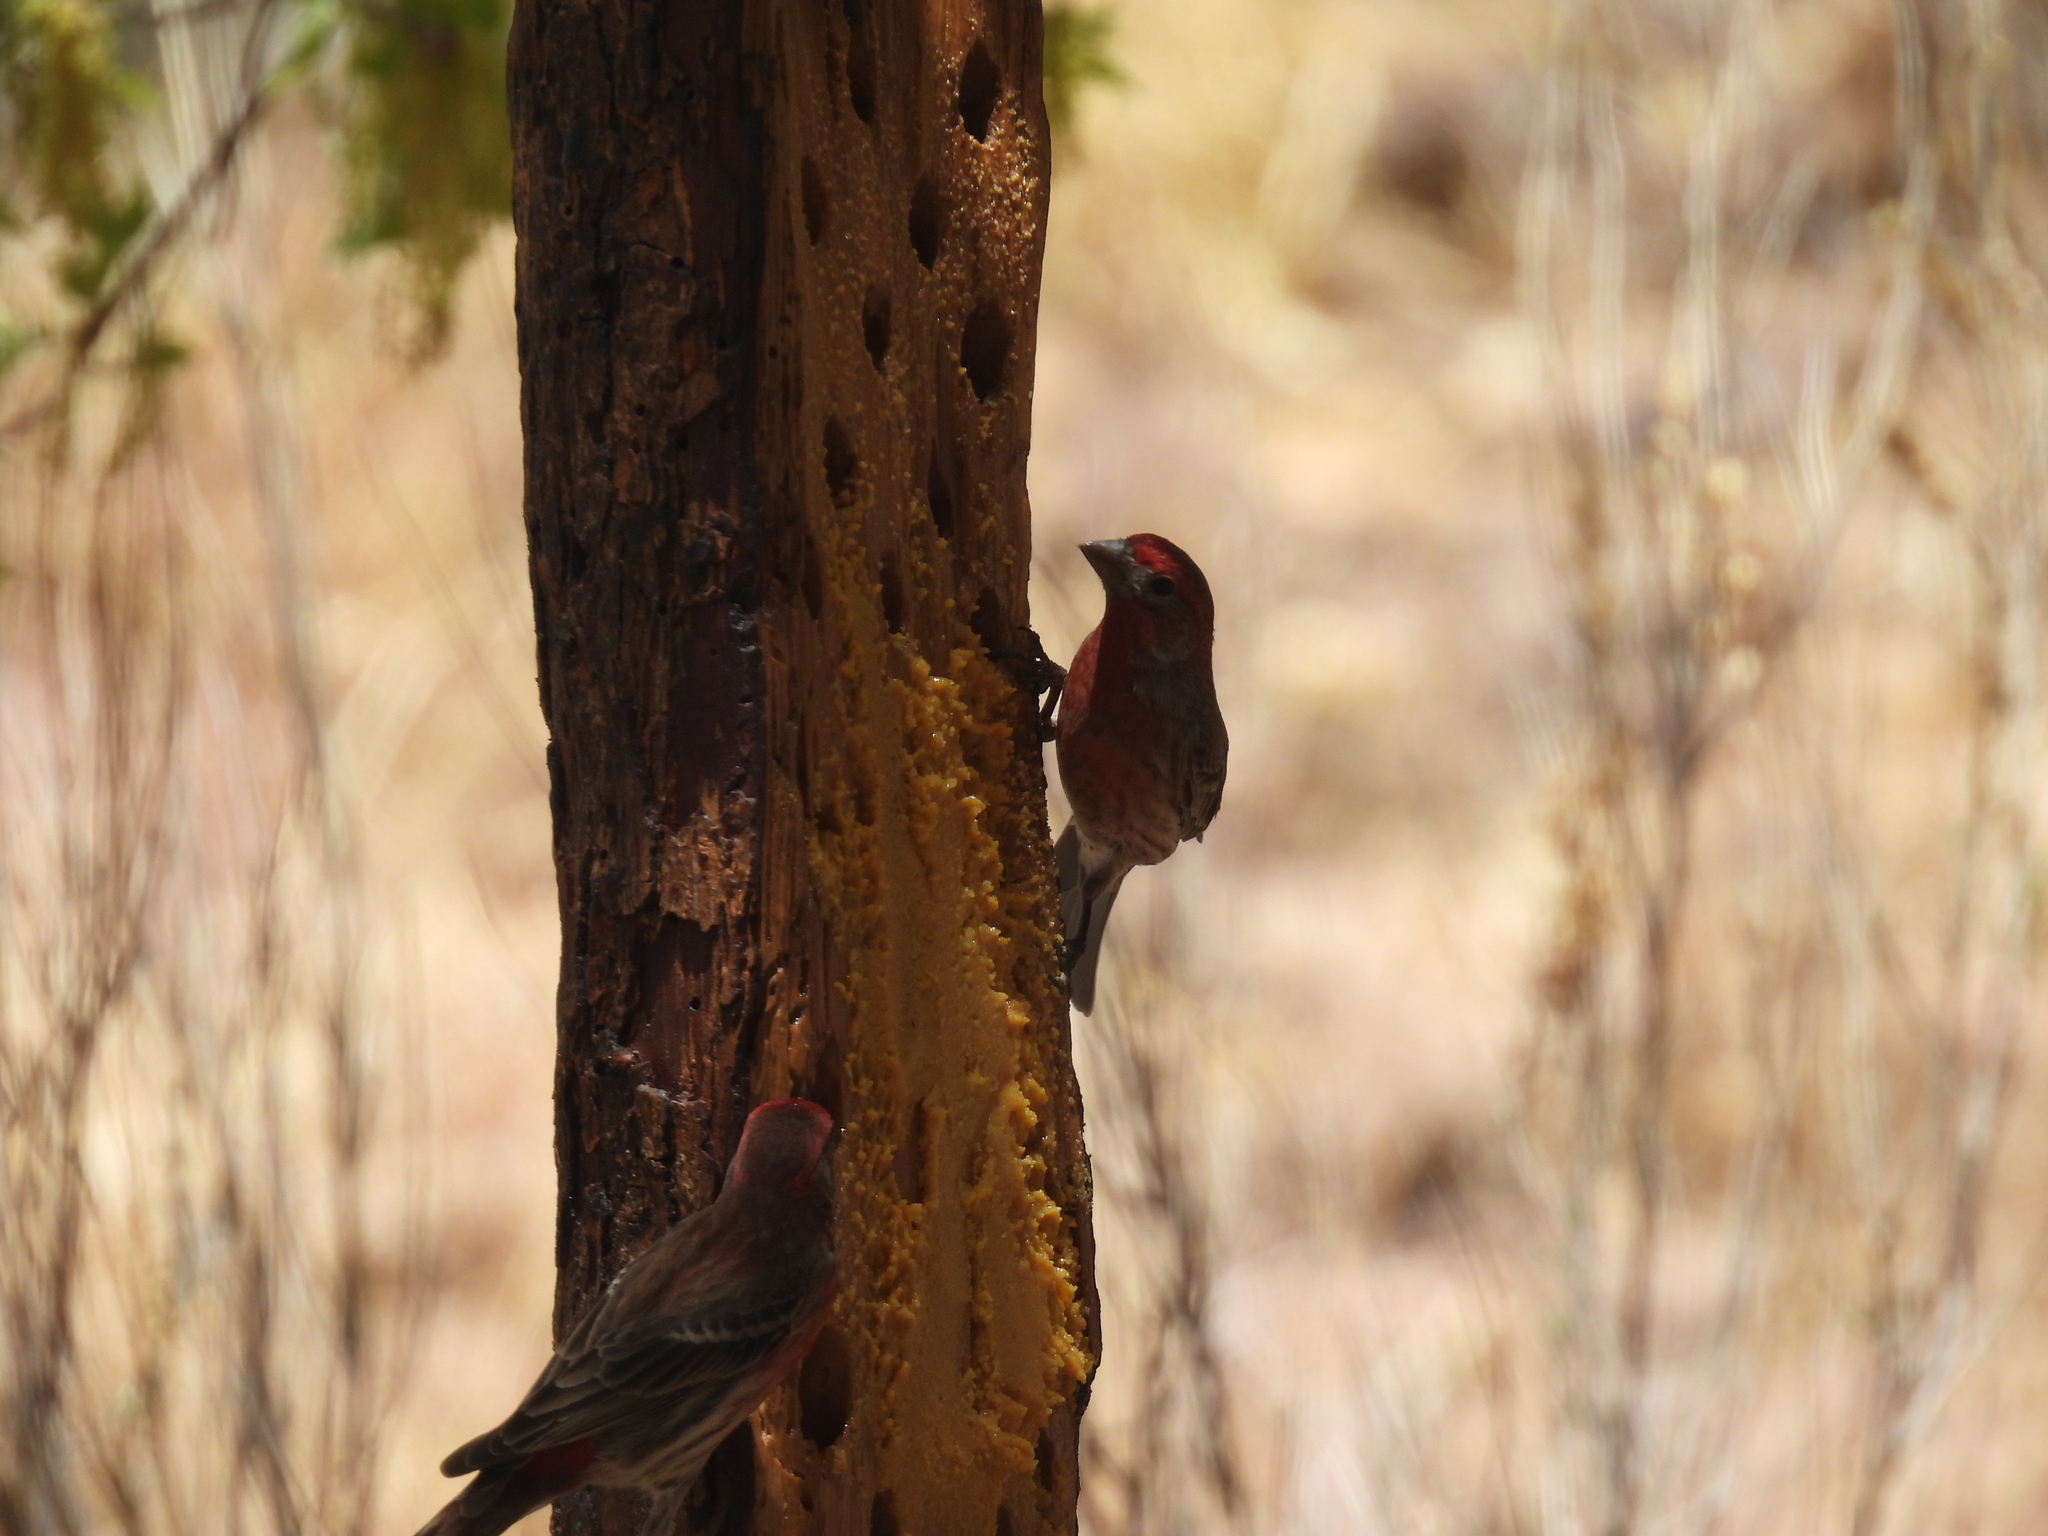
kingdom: Animalia
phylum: Chordata
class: Aves
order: Passeriformes
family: Fringillidae
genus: Haemorhous
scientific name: Haemorhous mexicanus
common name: House finch
